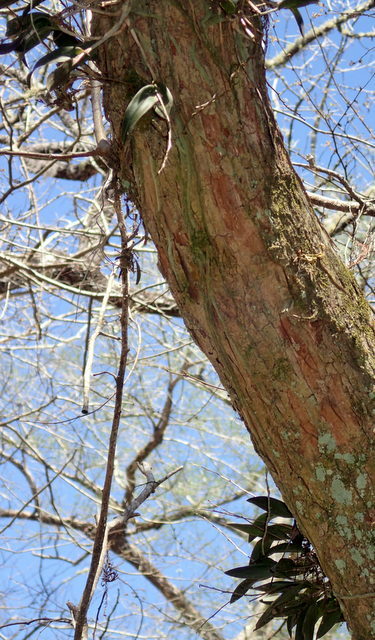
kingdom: Plantae
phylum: Tracheophyta
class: Liliopsida
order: Asparagales
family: Orchidaceae
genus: Epidendrum
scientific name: Epidendrum conopseum
